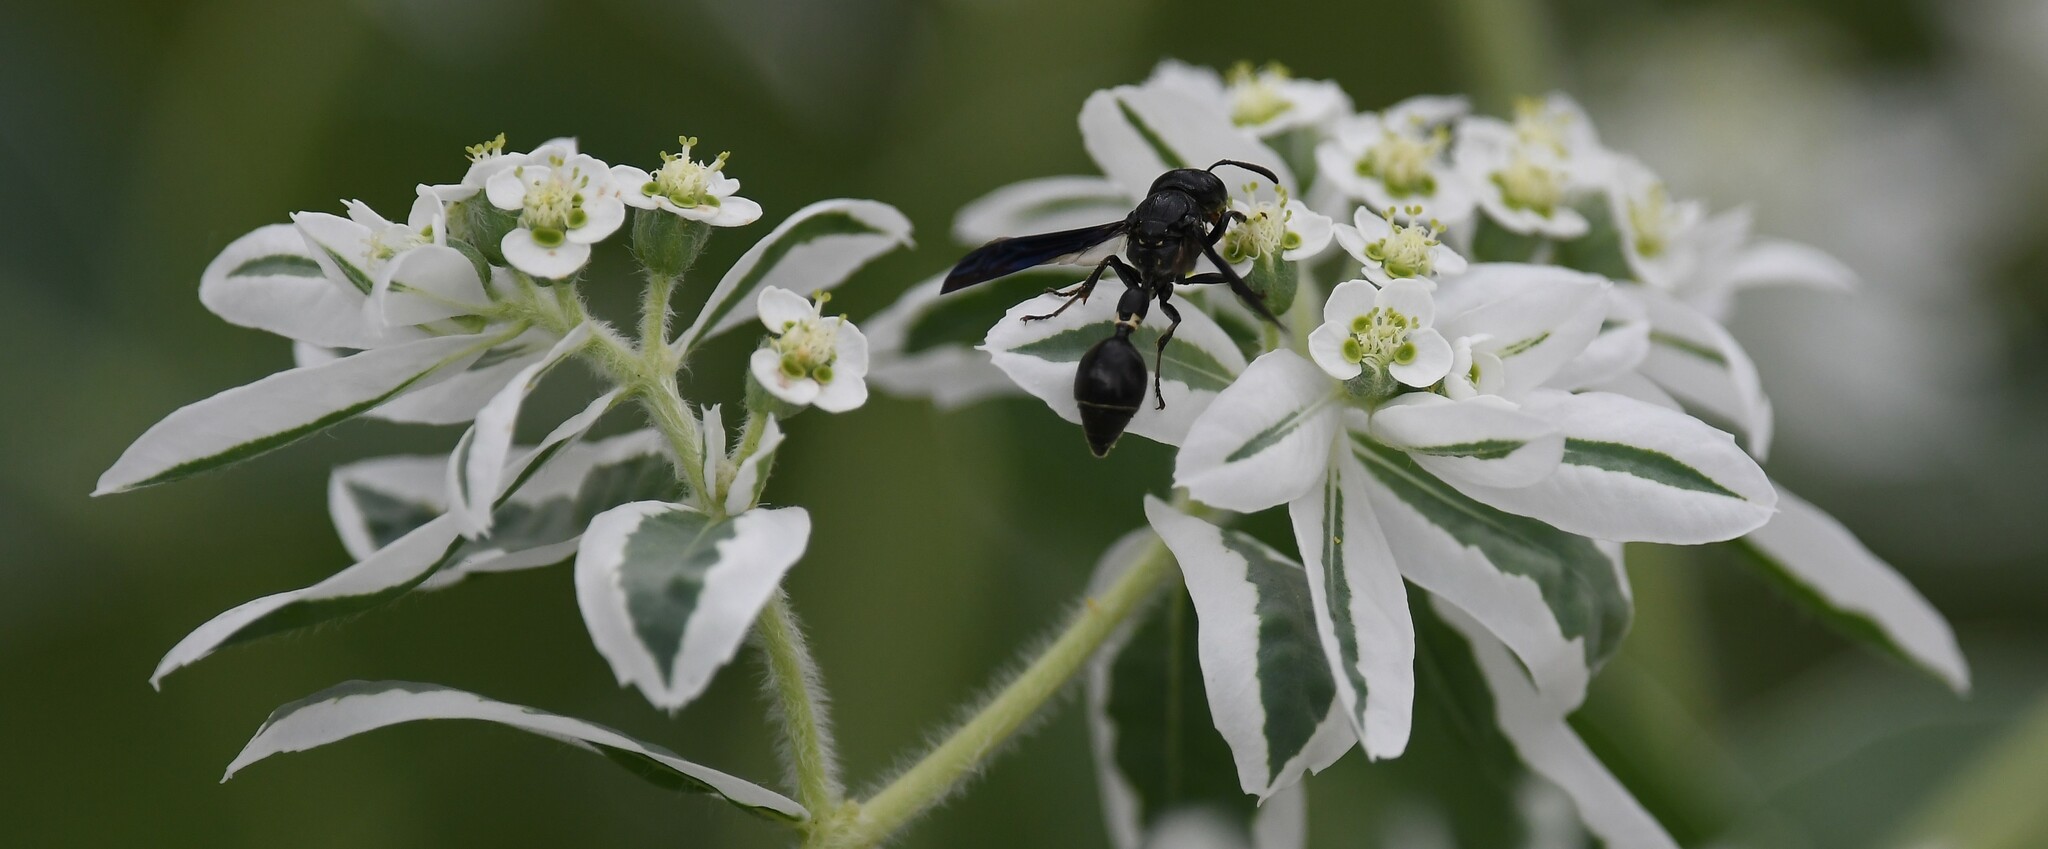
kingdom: Animalia
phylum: Arthropoda
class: Insecta
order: Hymenoptera
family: Eumenidae
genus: Zethus
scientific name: Zethus spinipes
